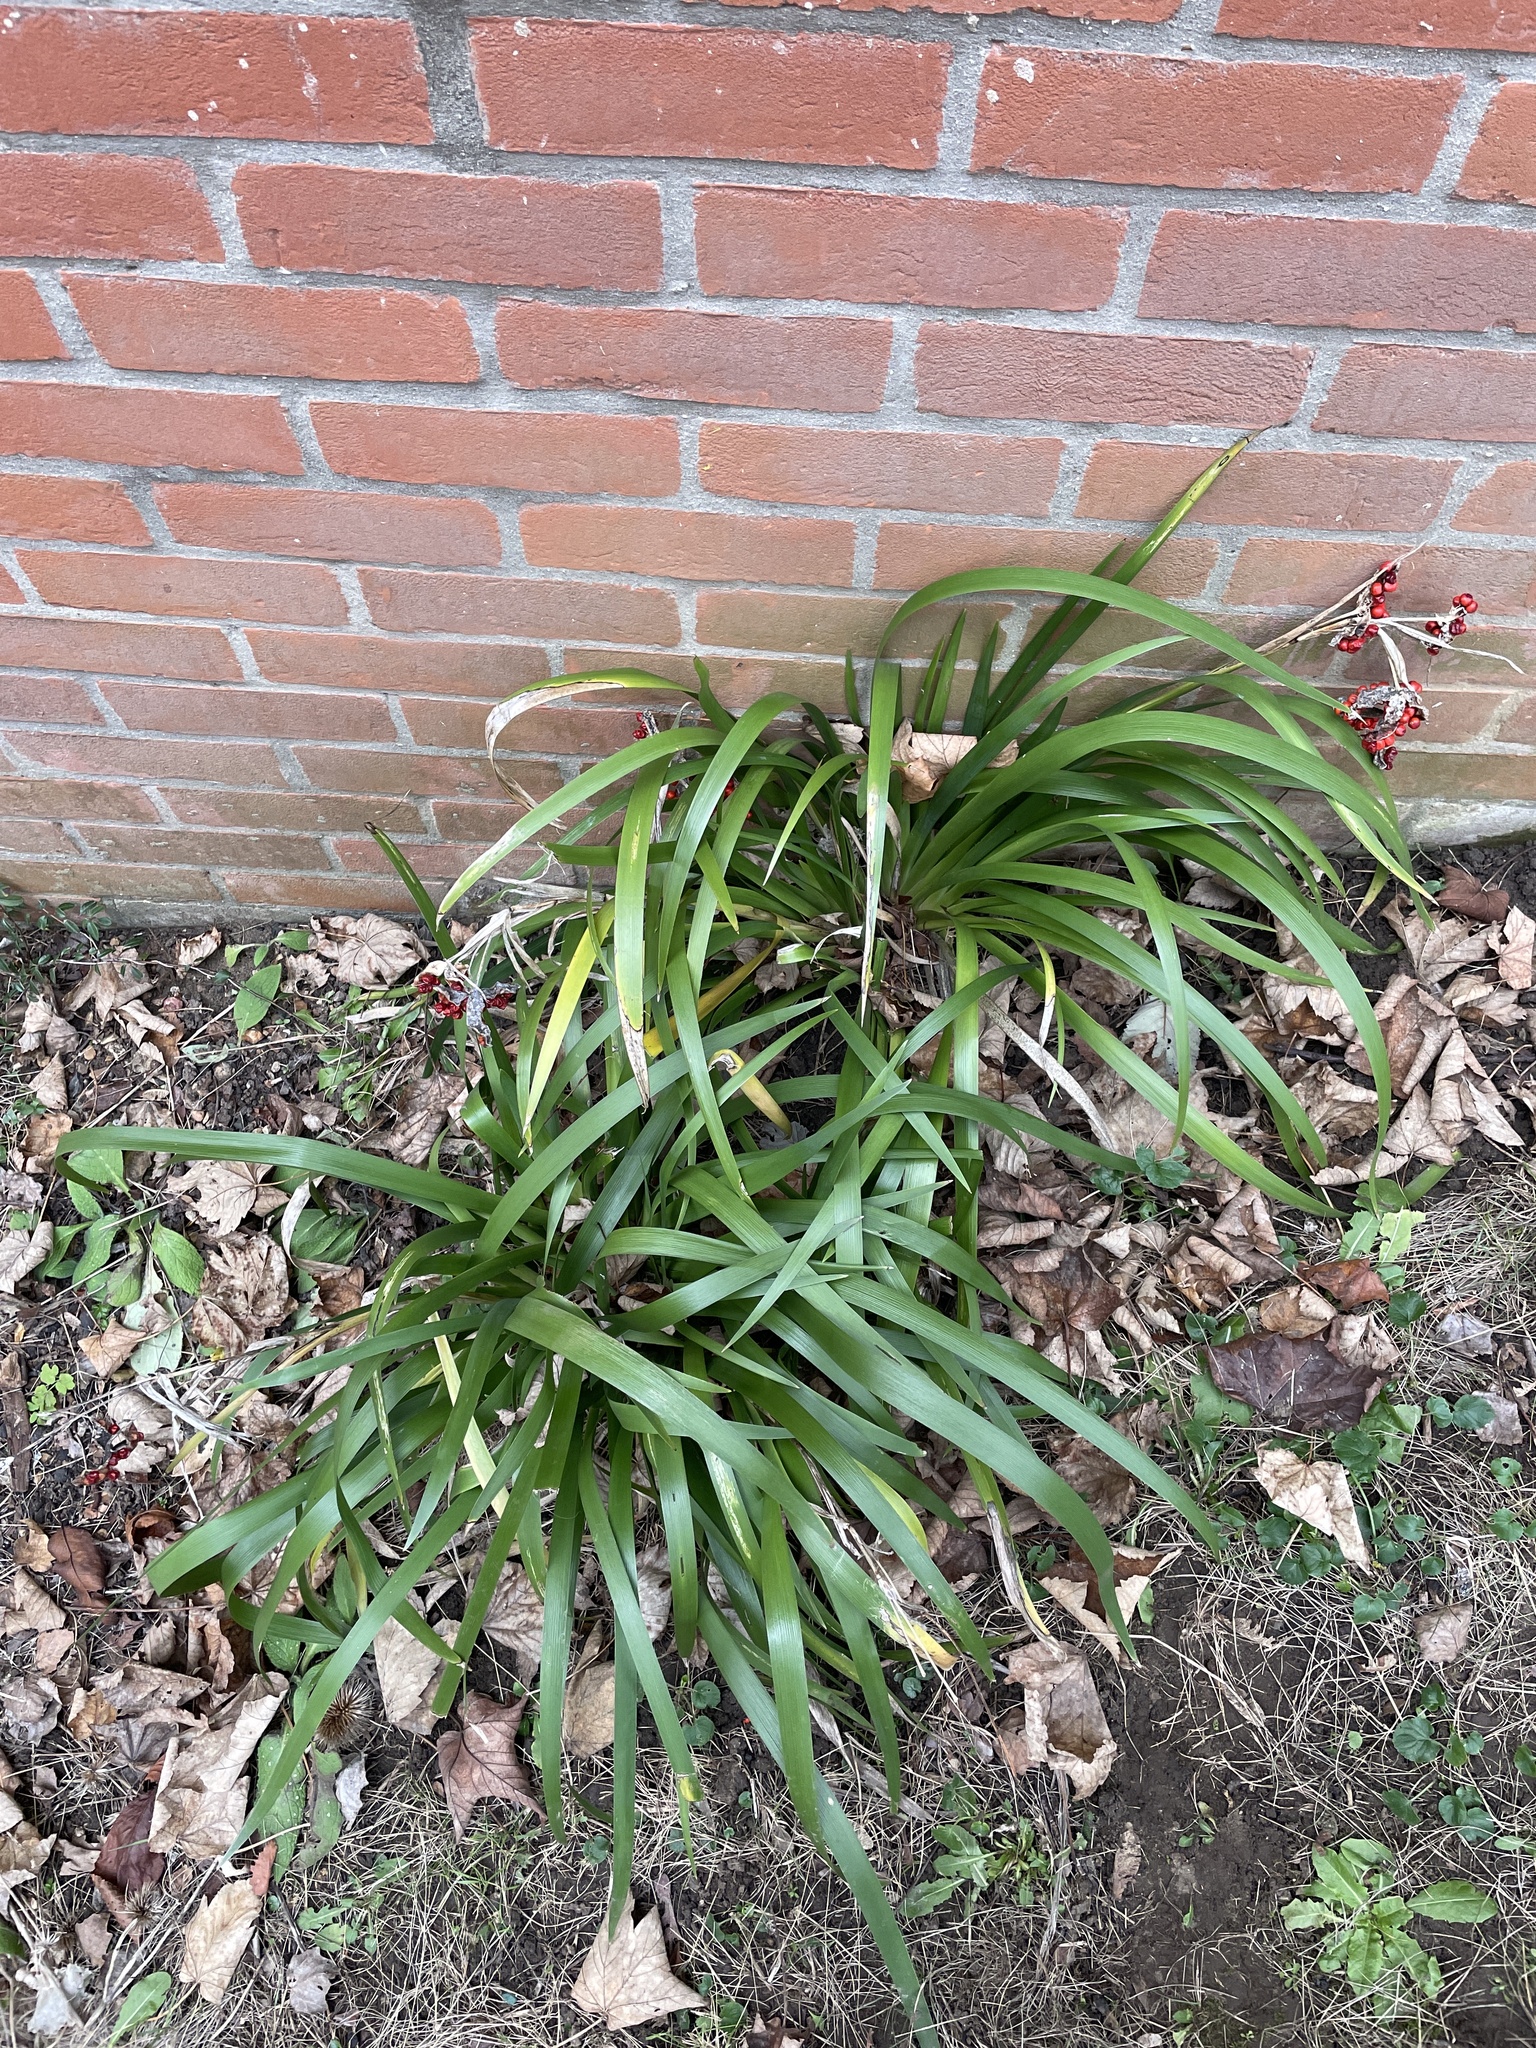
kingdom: Plantae
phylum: Tracheophyta
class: Liliopsida
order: Asparagales
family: Iridaceae
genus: Iris
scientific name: Iris foetidissima
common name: Stinking iris
